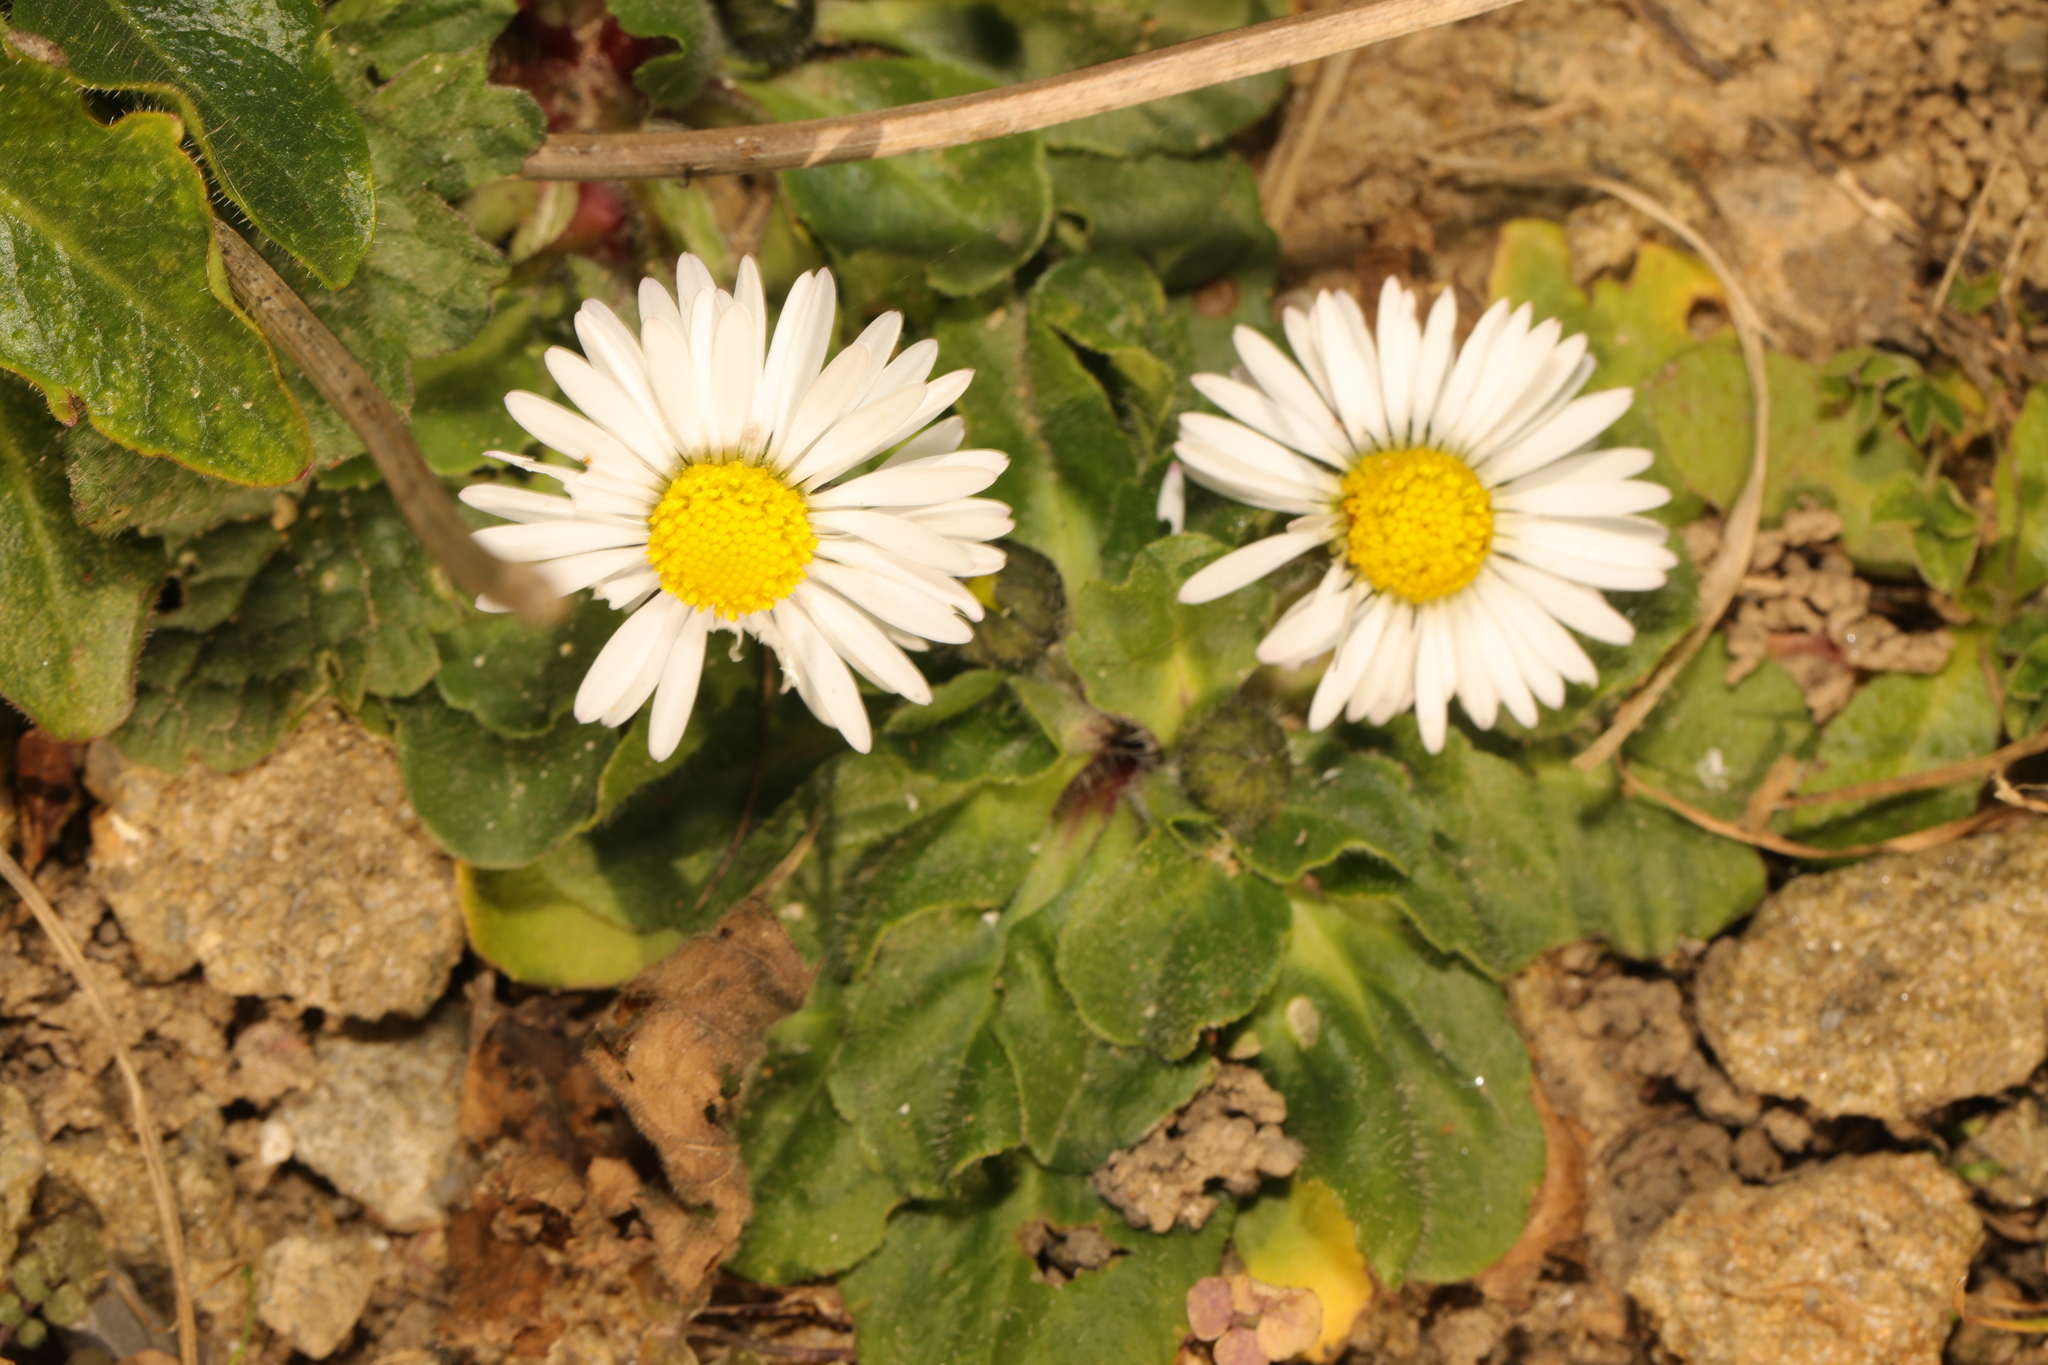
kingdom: Plantae
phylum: Tracheophyta
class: Magnoliopsida
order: Asterales
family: Asteraceae
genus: Bellis
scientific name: Bellis perennis
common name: Lawndaisy
